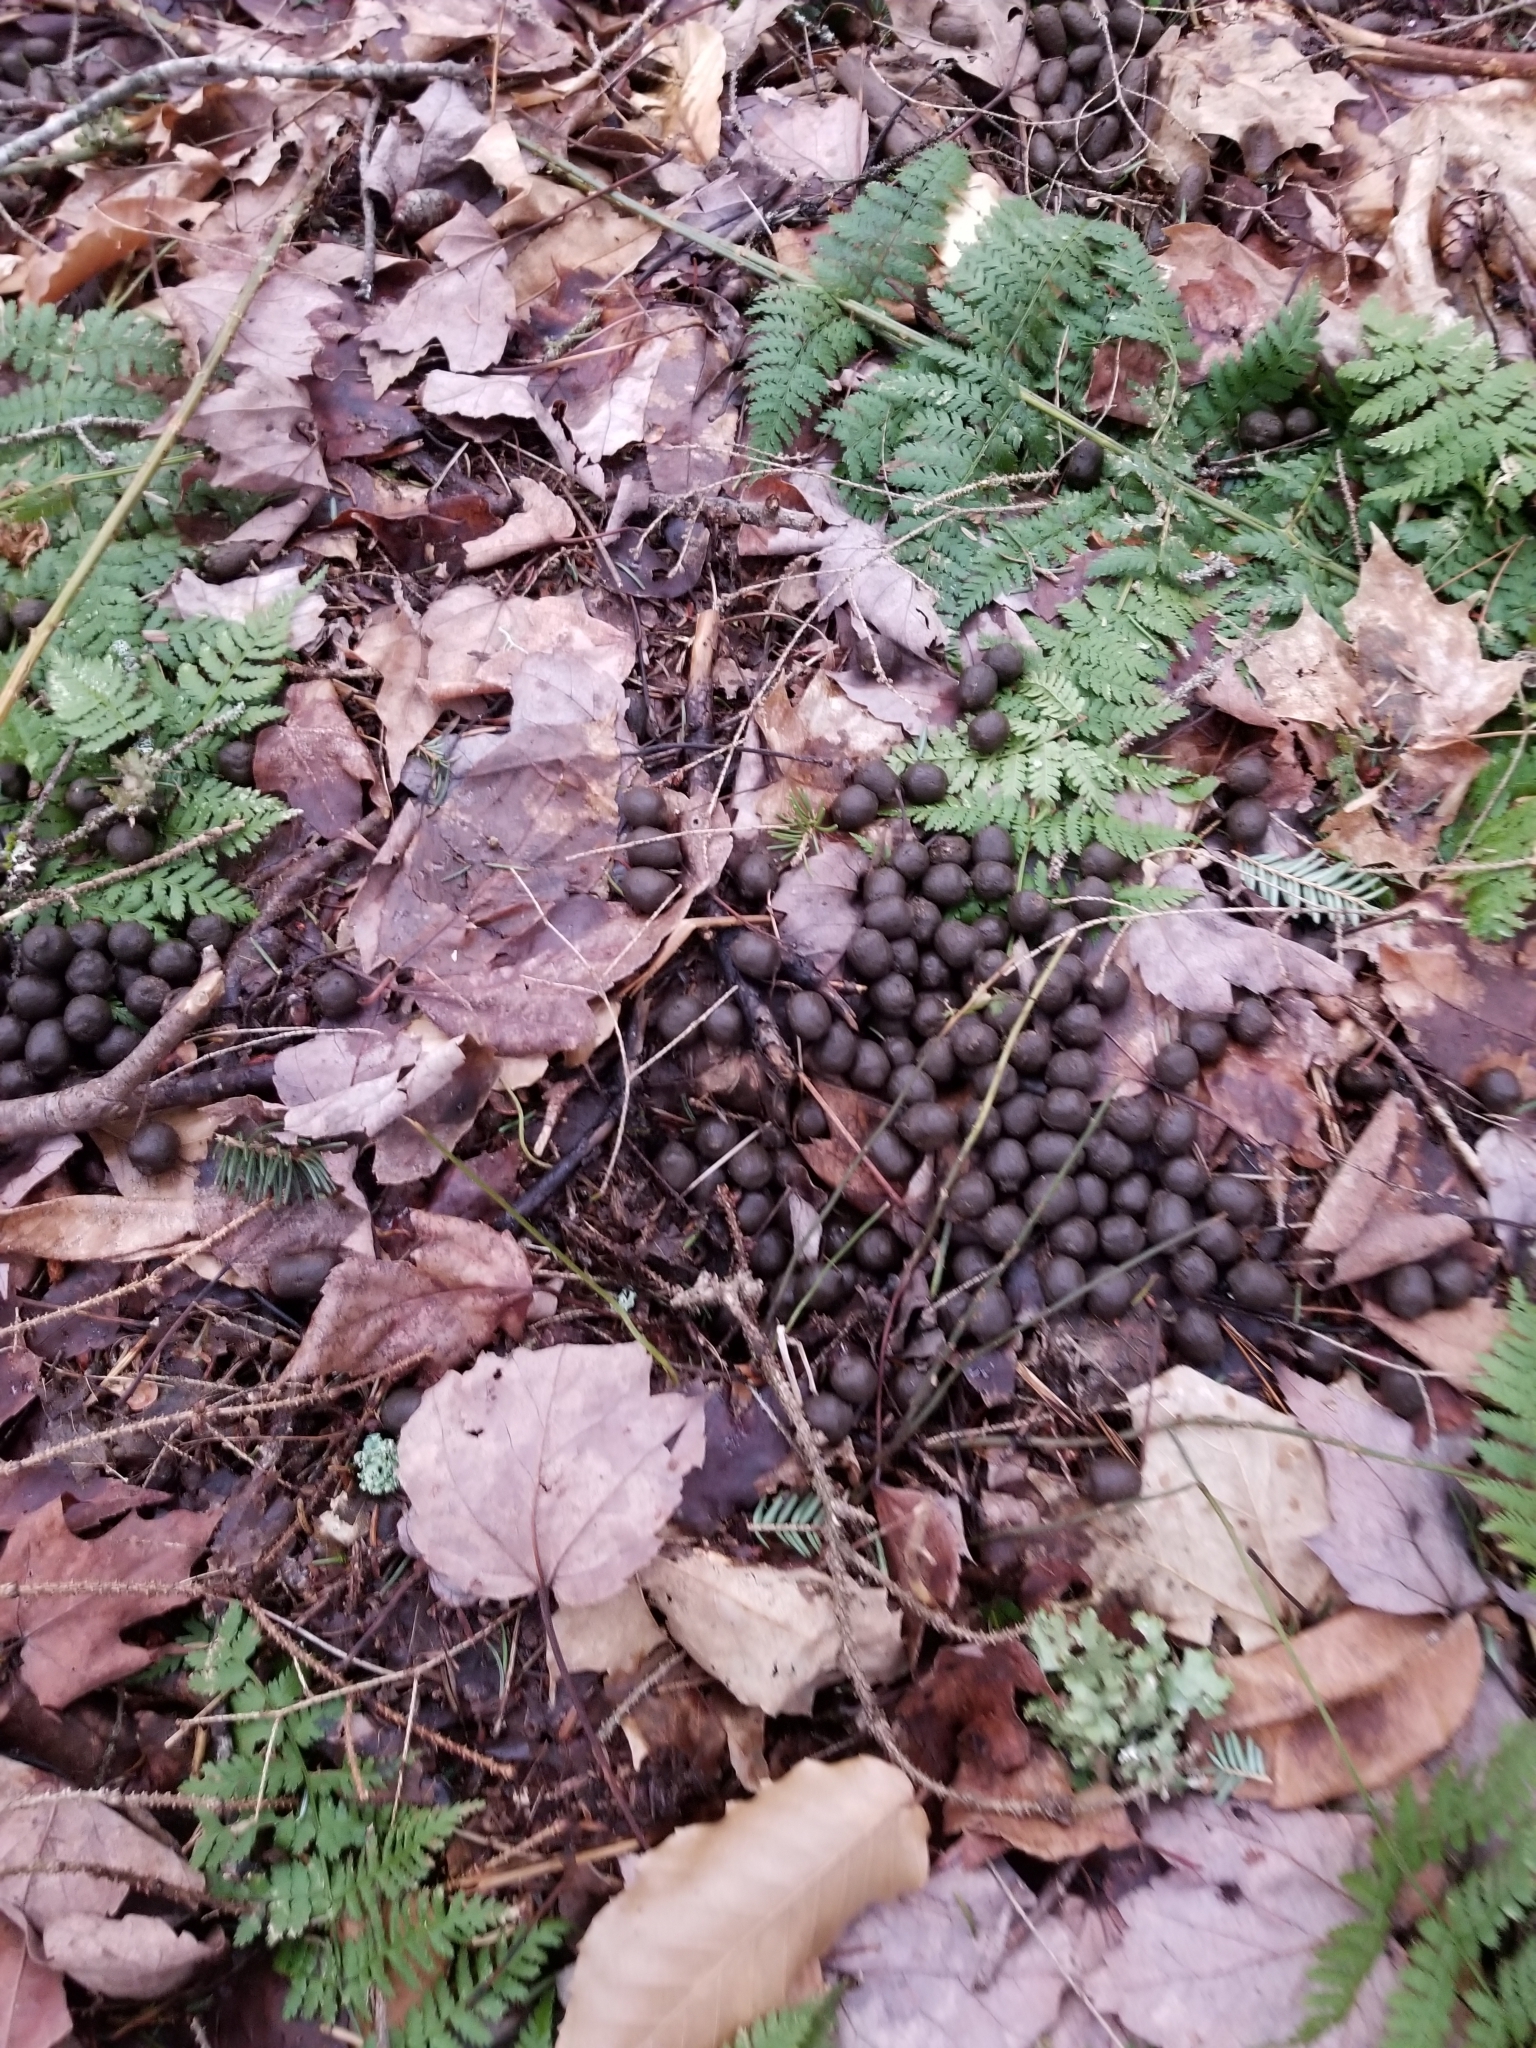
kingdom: Animalia
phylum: Chordata
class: Mammalia
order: Artiodactyla
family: Cervidae
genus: Odocoileus
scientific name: Odocoileus virginianus
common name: White-tailed deer
